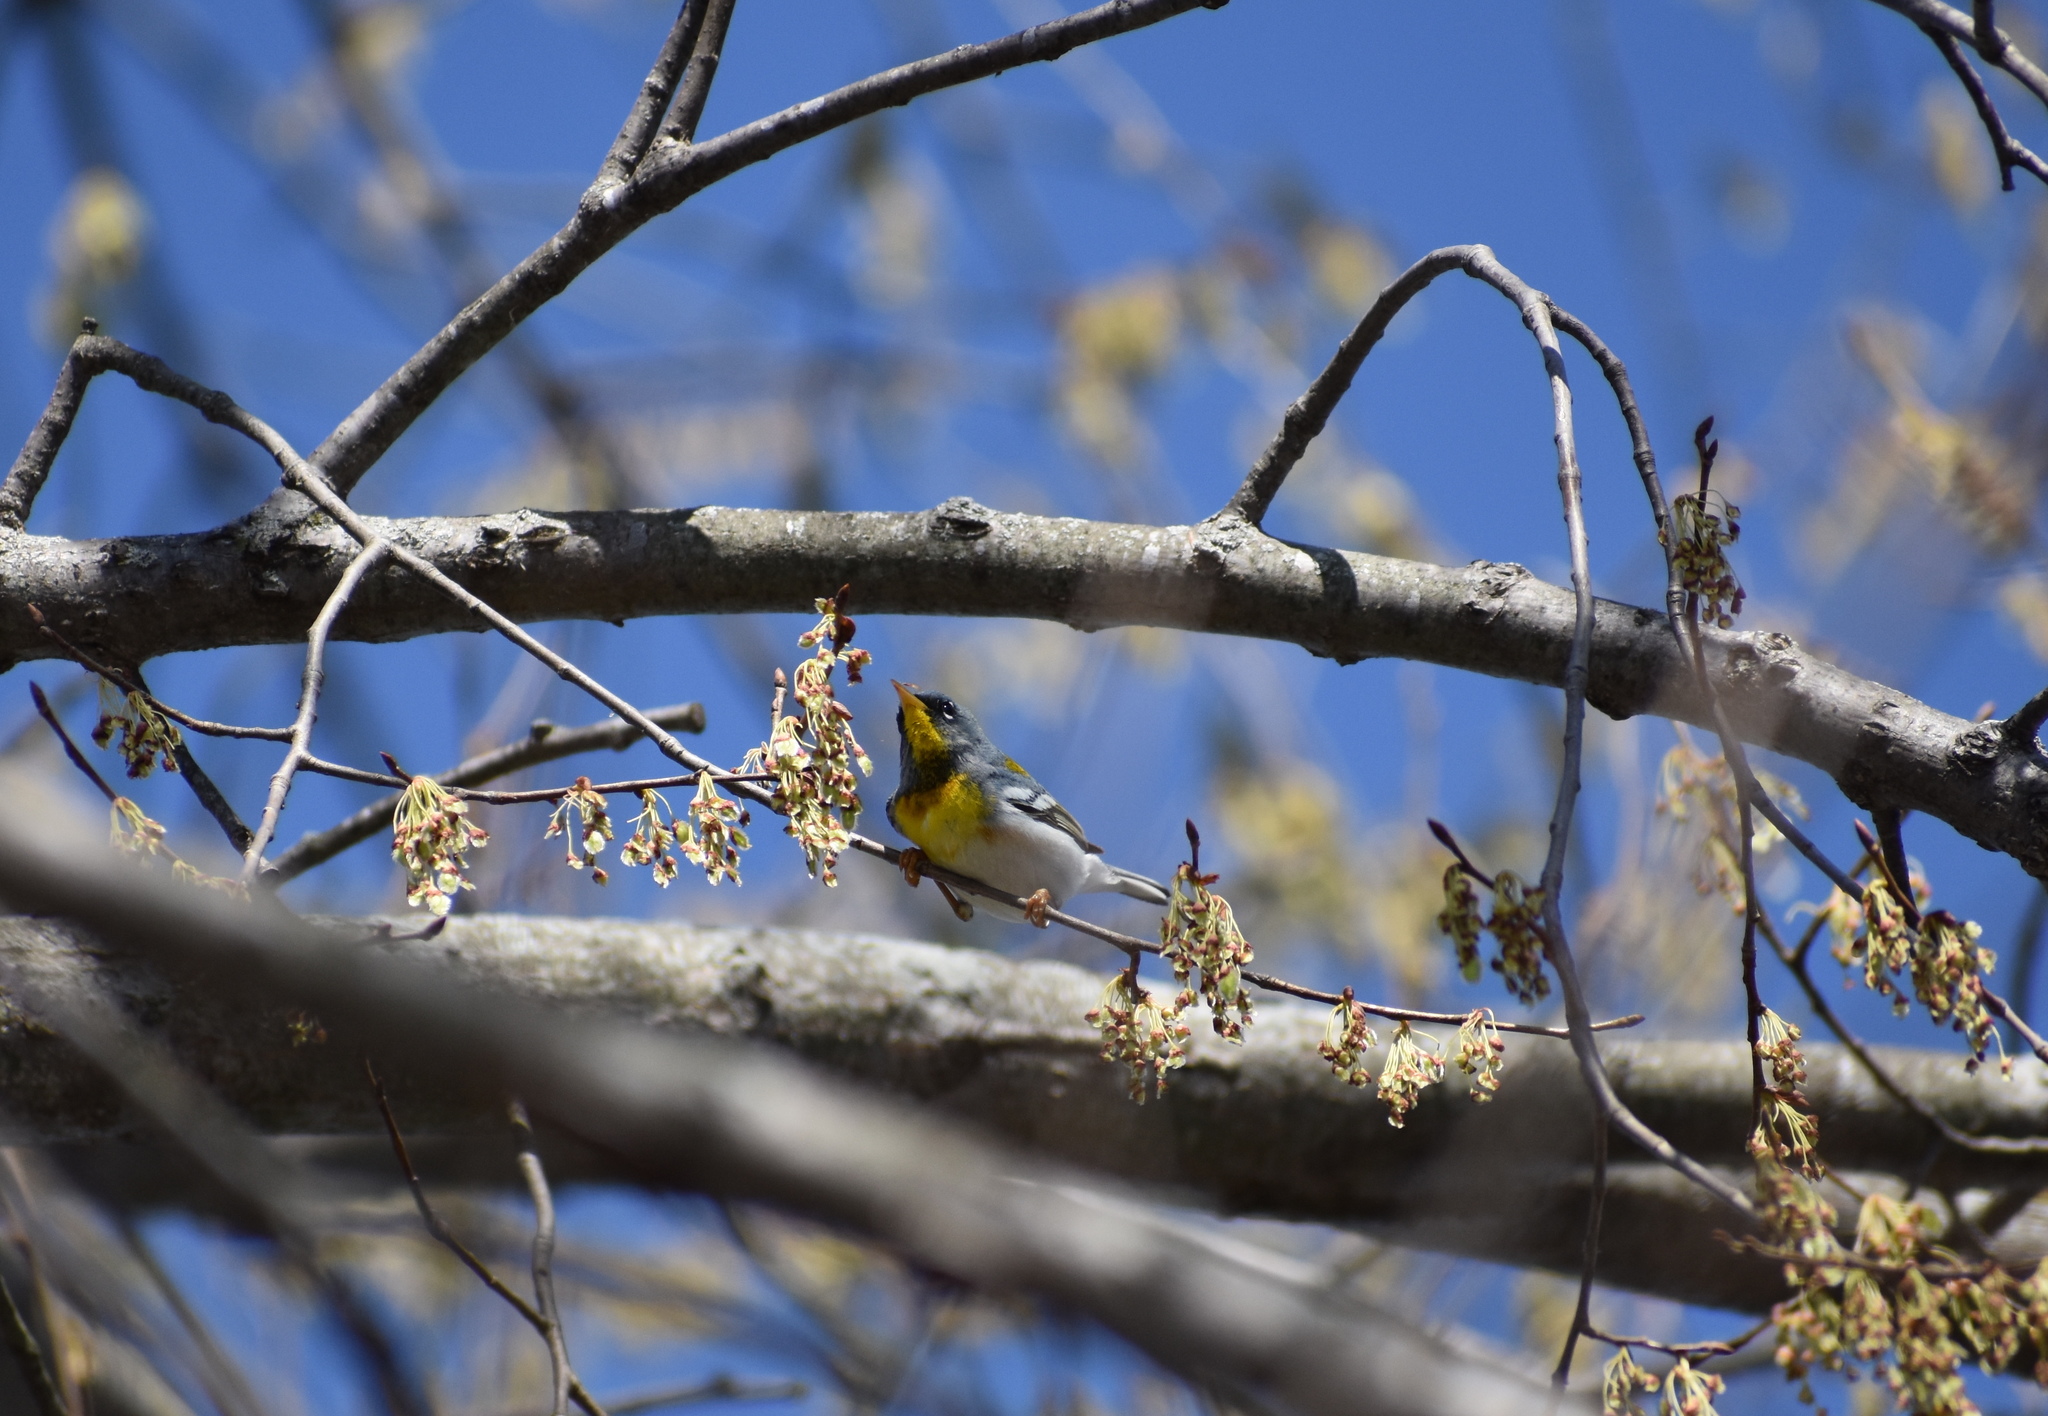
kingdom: Animalia
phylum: Chordata
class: Aves
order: Passeriformes
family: Parulidae
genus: Setophaga
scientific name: Setophaga americana
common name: Northern parula
